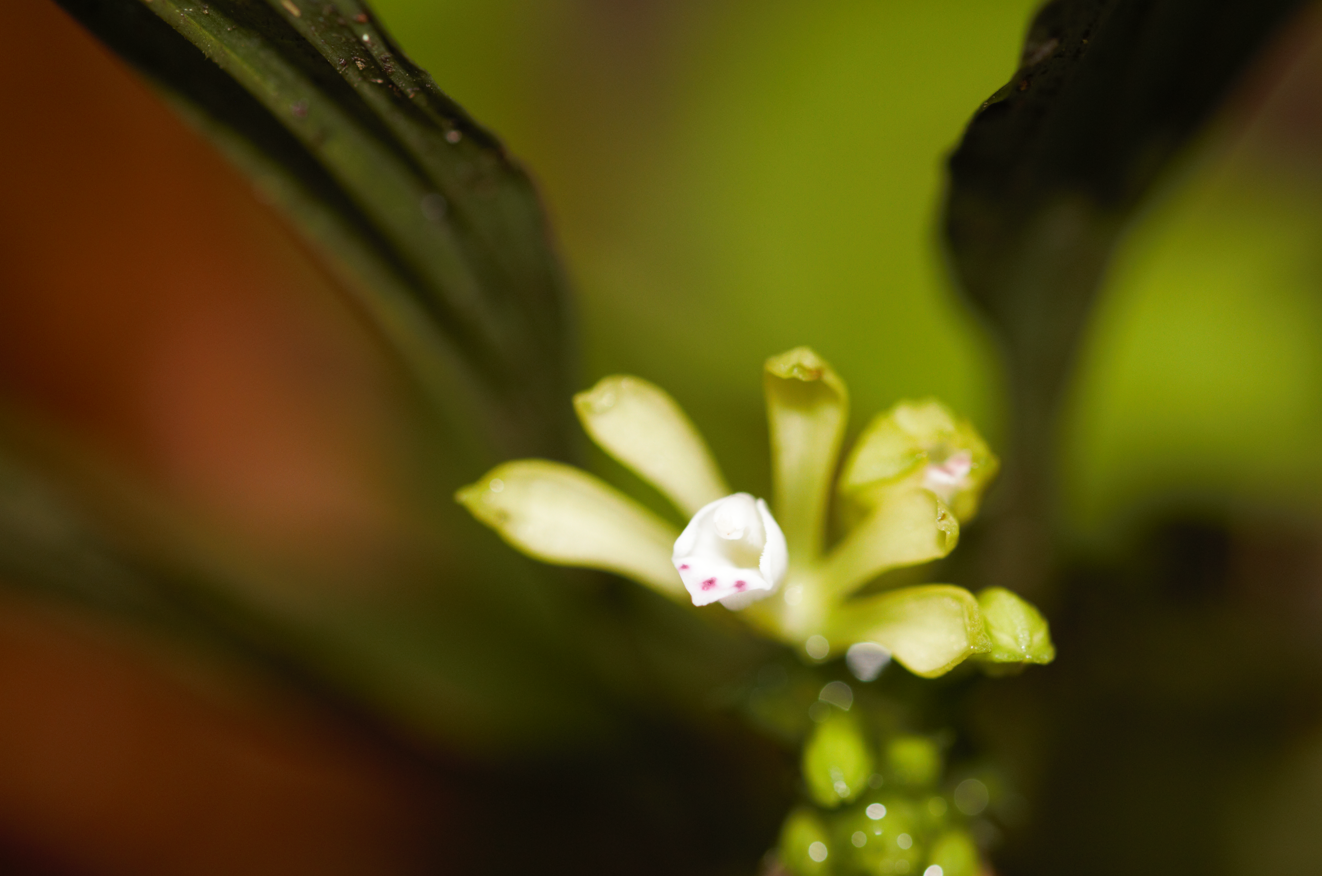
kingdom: Plantae
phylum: Tracheophyta
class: Liliopsida
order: Asparagales
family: Orchidaceae
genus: Palmorchis
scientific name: Palmorchis pabstii
